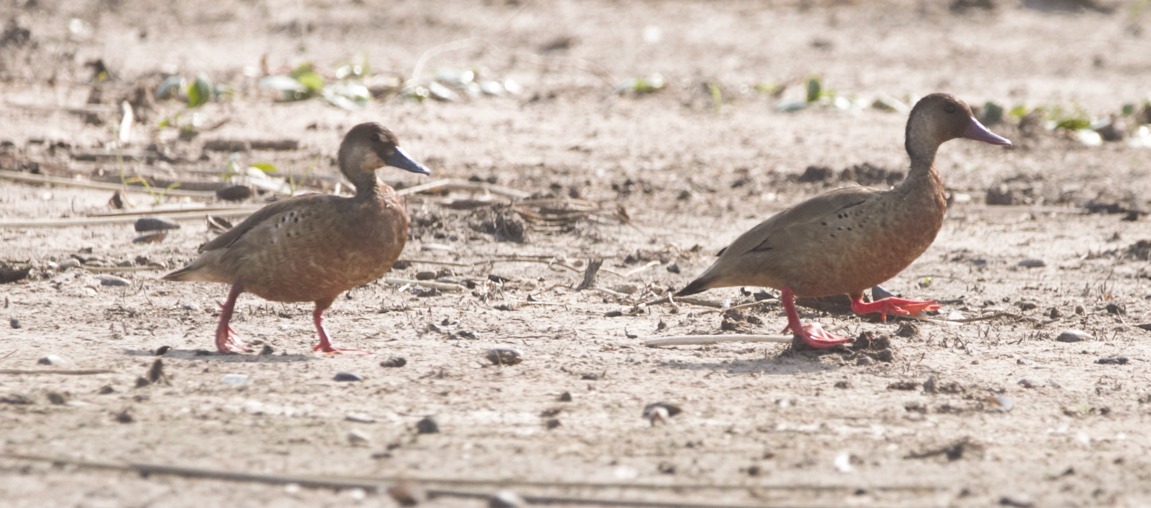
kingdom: Animalia
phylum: Chordata
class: Aves
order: Anseriformes
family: Anatidae
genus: Amazonetta
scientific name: Amazonetta brasiliensis
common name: Brazilian teal
